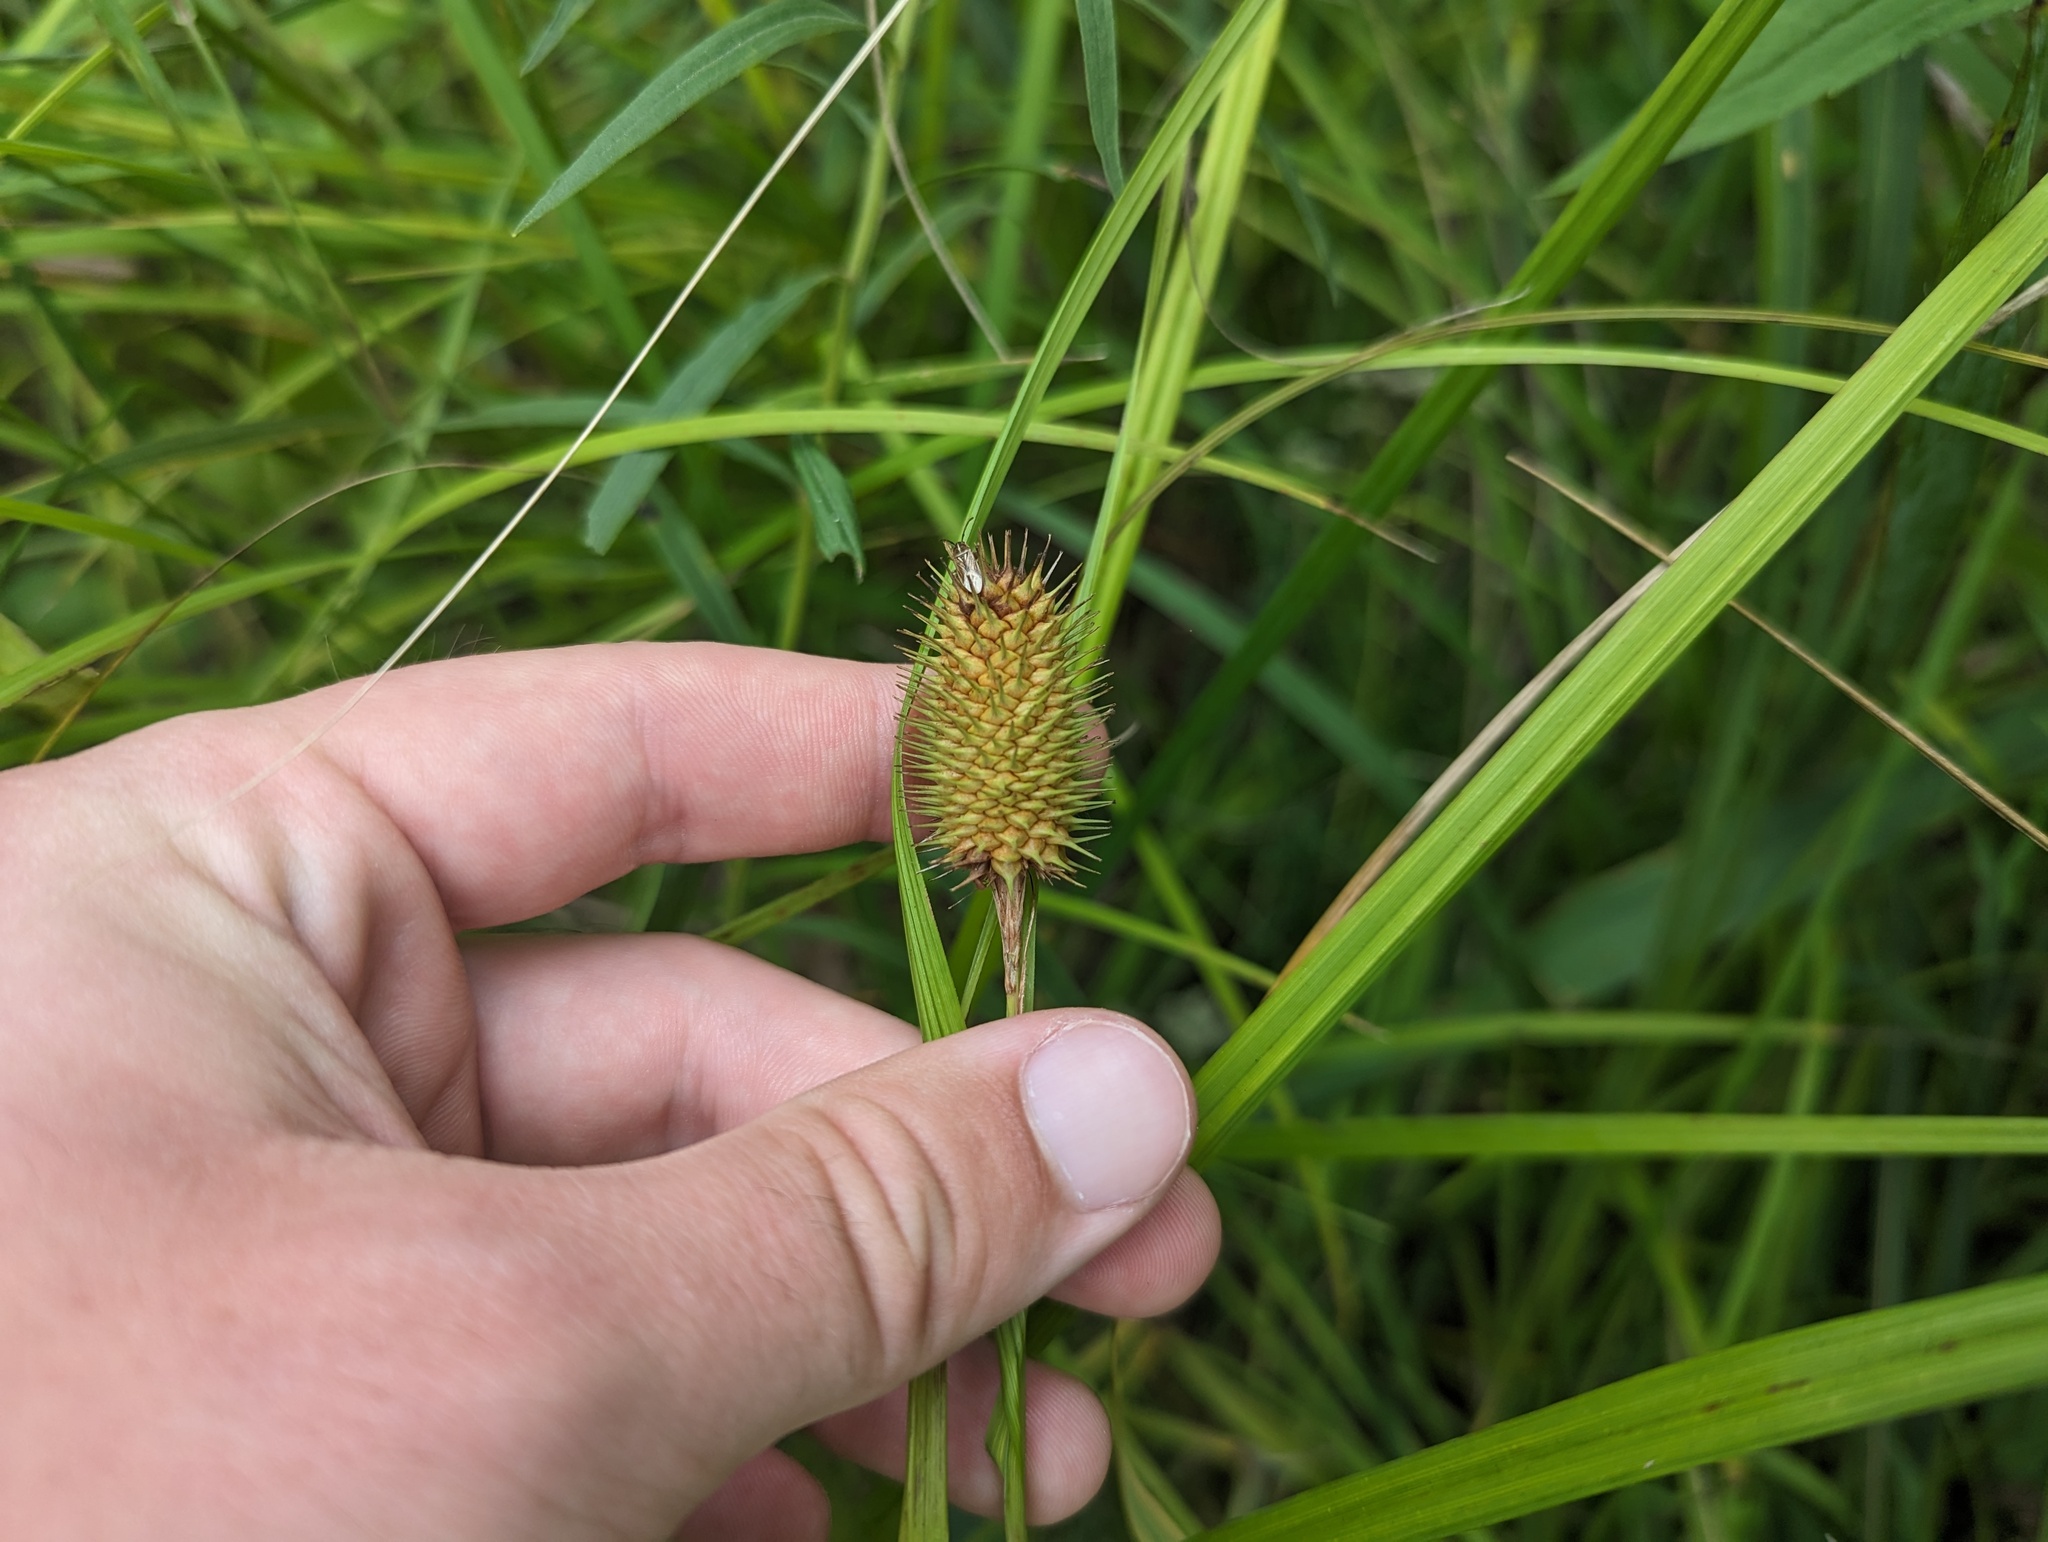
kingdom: Plantae
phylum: Tracheophyta
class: Liliopsida
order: Poales
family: Cyperaceae
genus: Carex
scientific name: Carex squarrosa
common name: Narrow-leaved cattail sedge
